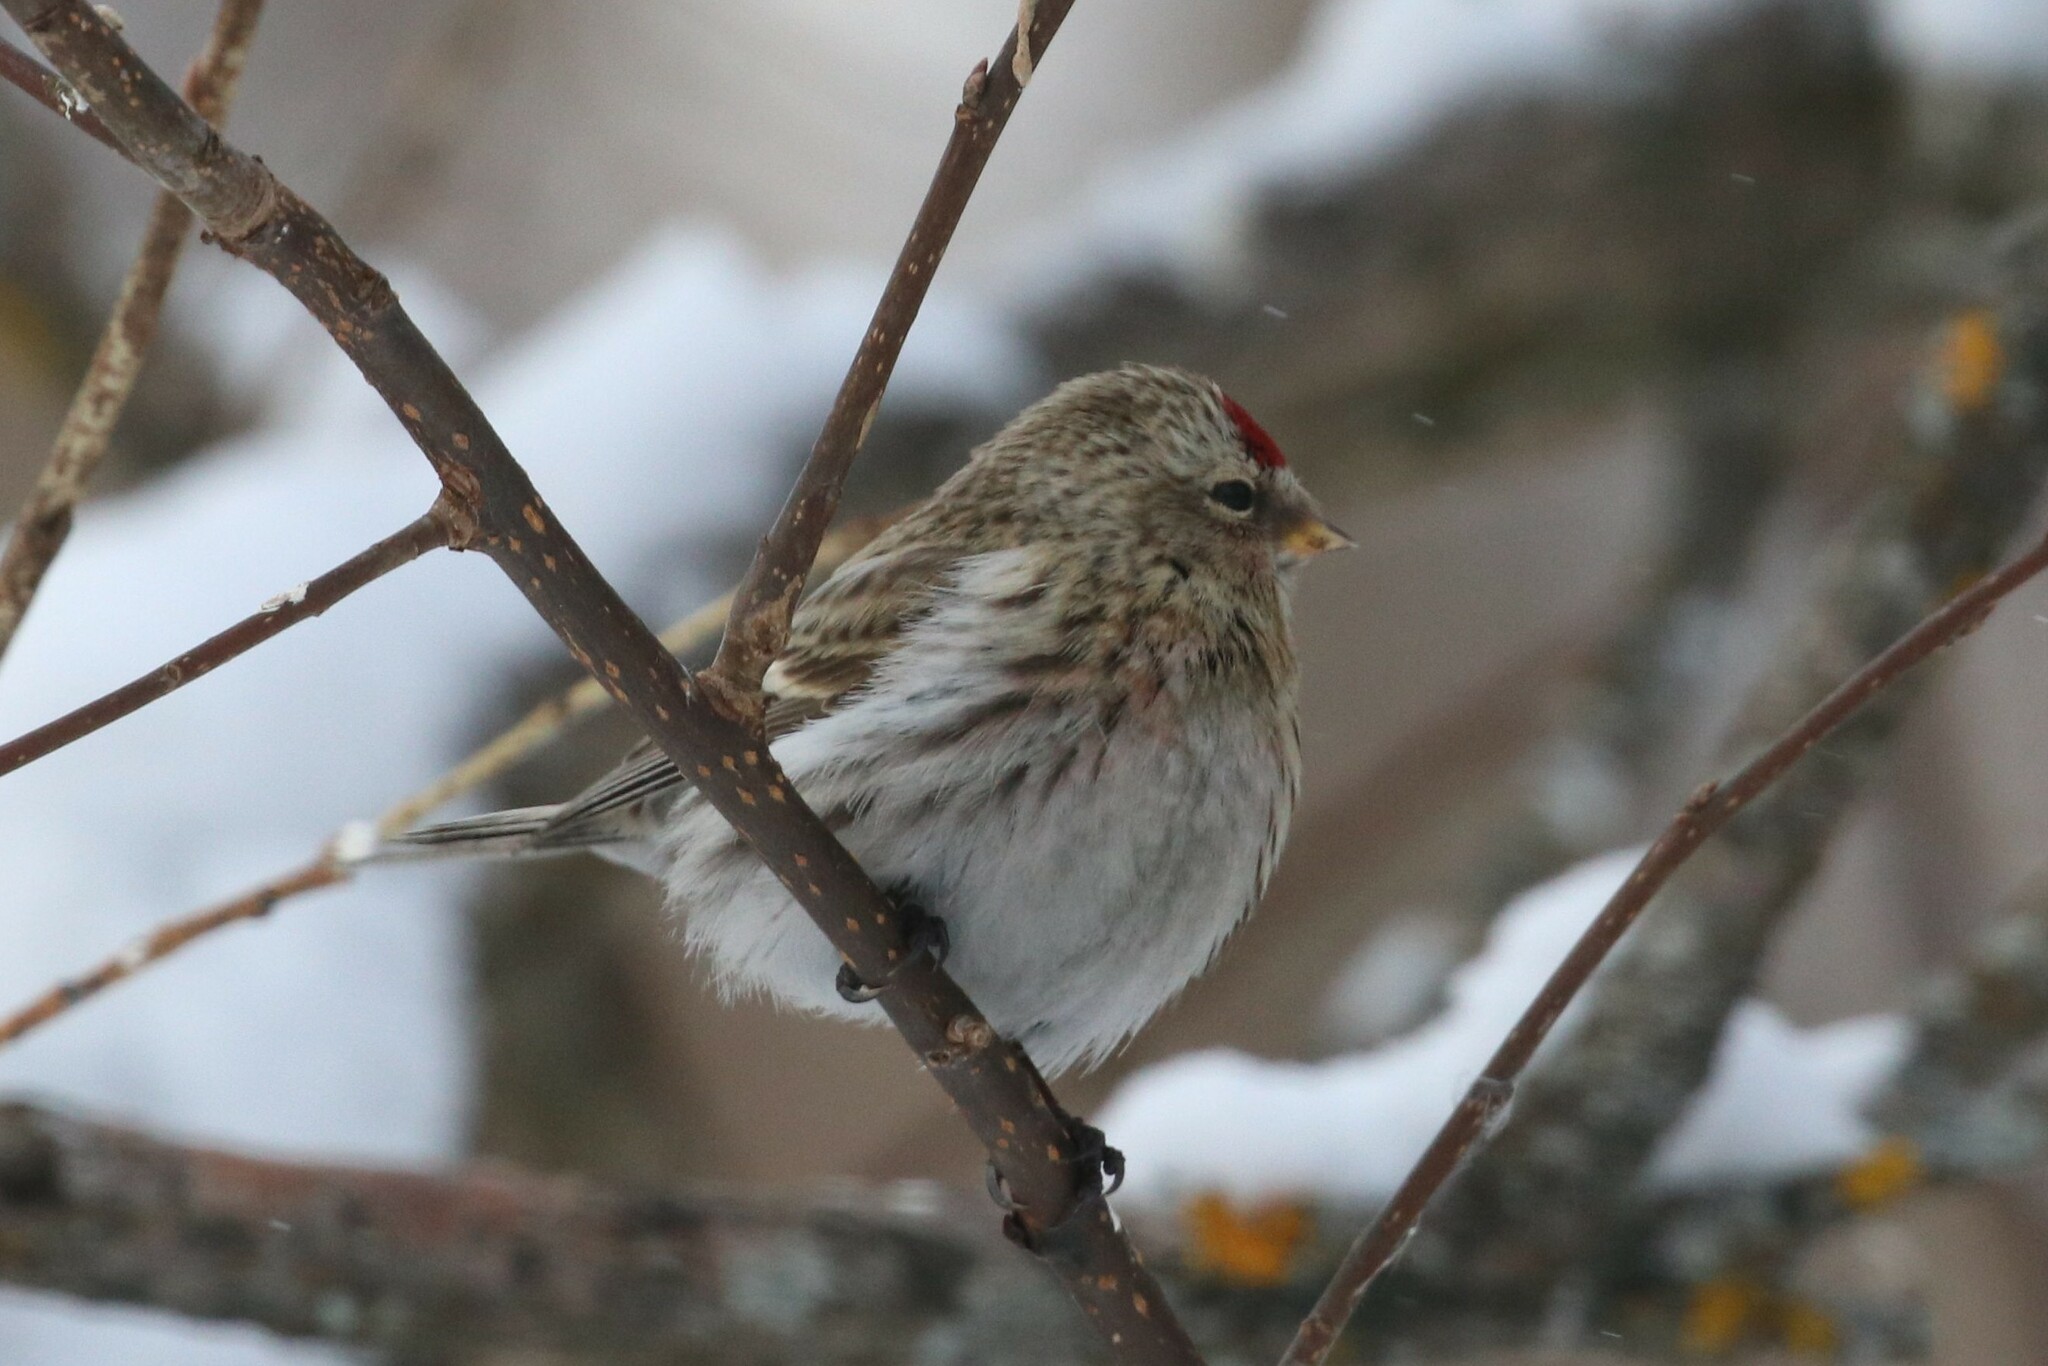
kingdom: Animalia
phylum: Chordata
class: Aves
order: Passeriformes
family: Fringillidae
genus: Acanthis
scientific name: Acanthis flammea
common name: Common redpoll
